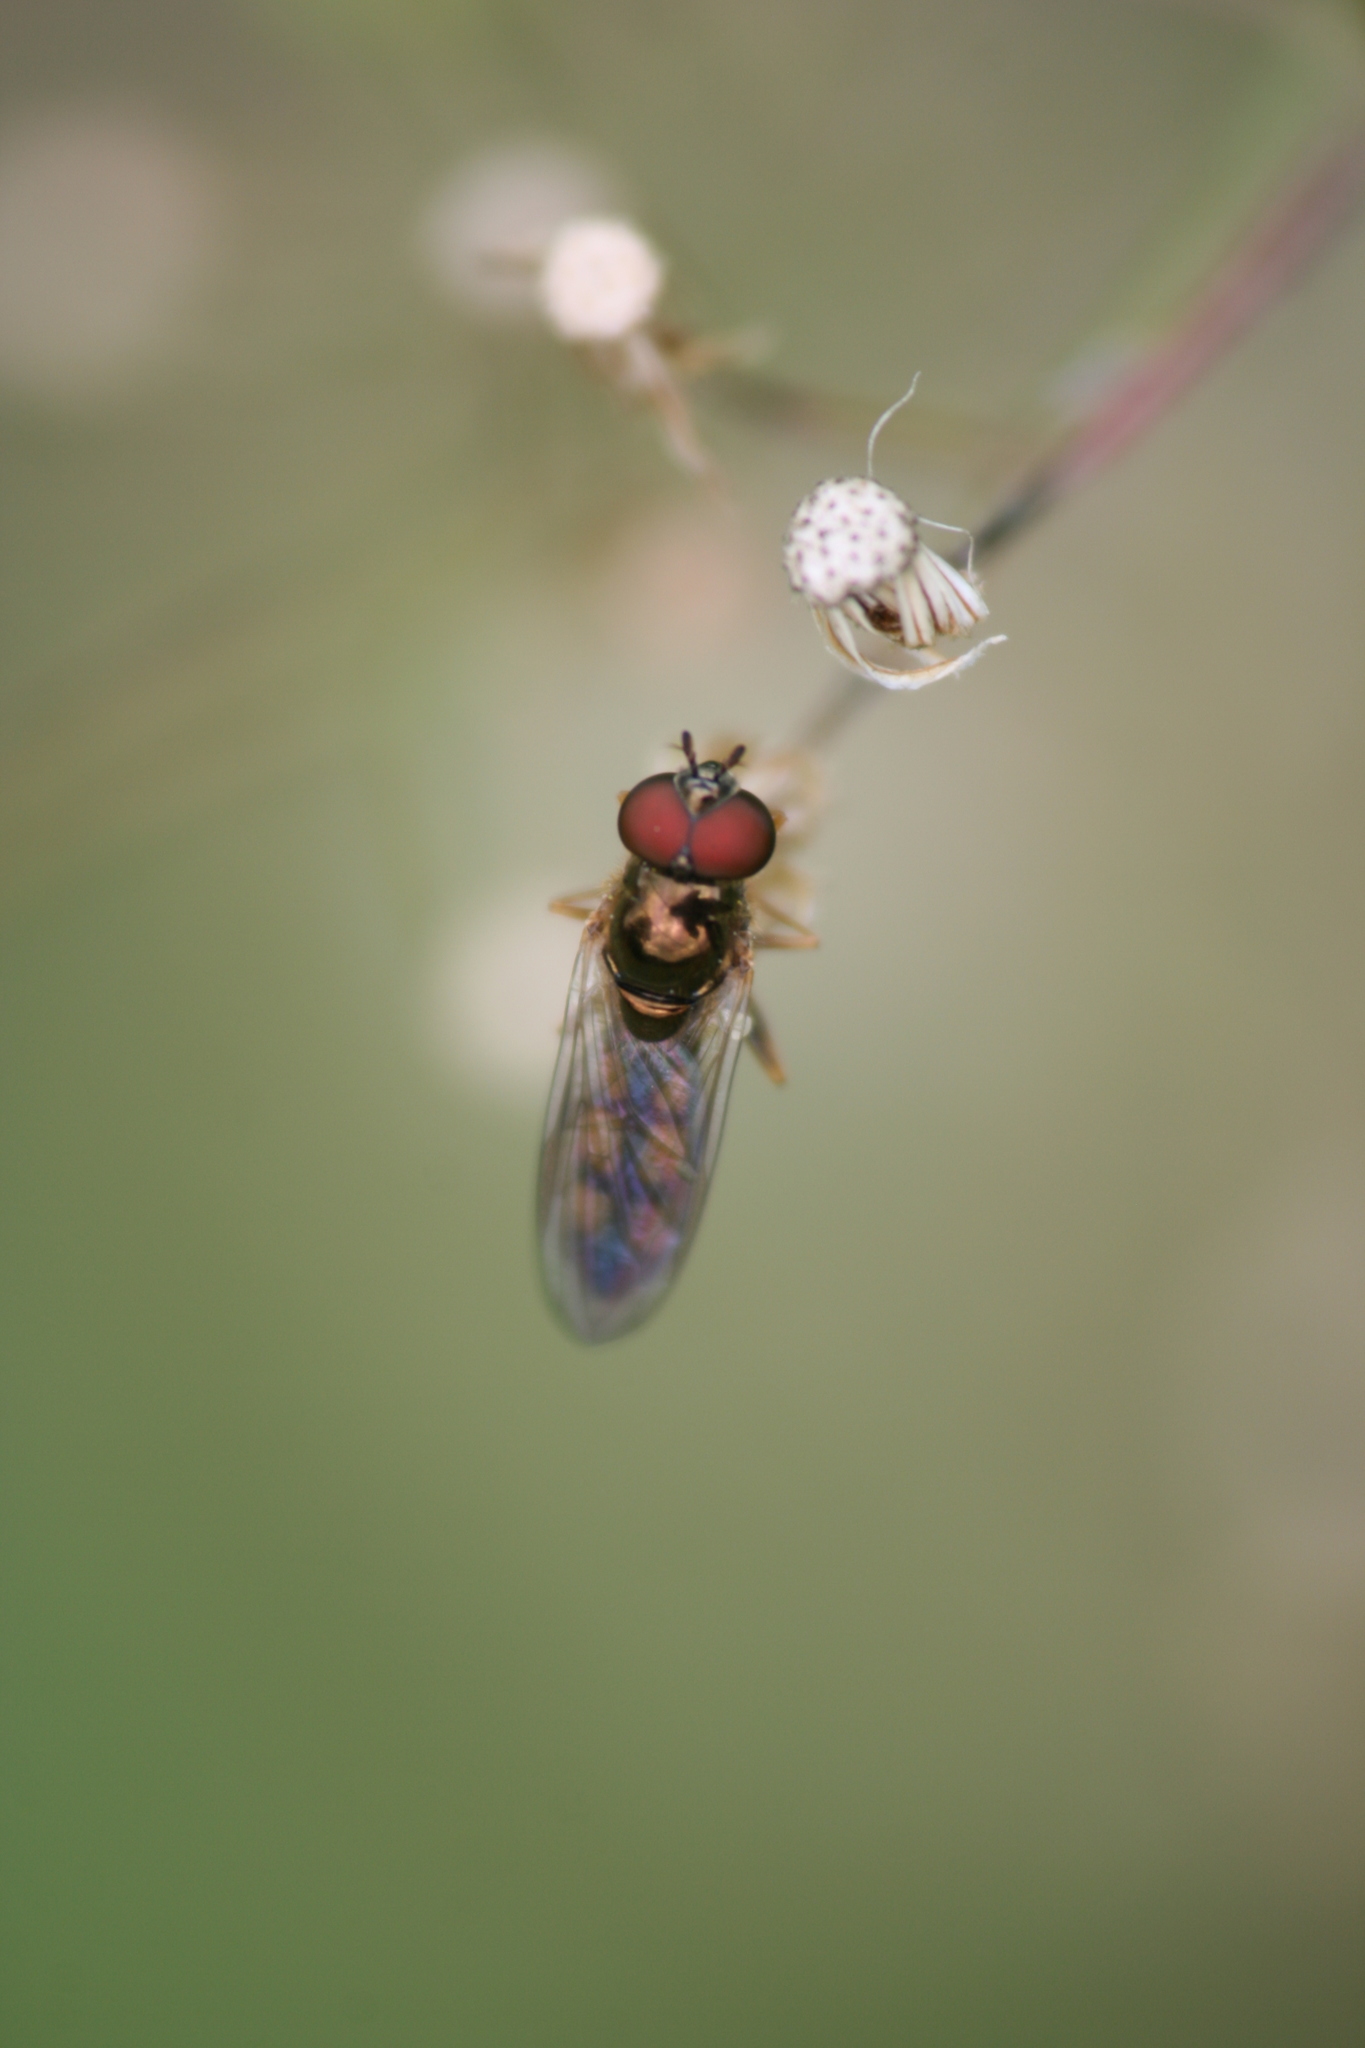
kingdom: Animalia
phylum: Arthropoda
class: Insecta
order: Diptera
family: Syrphidae
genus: Melanostoma
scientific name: Melanostoma mellina
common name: Hover fly
